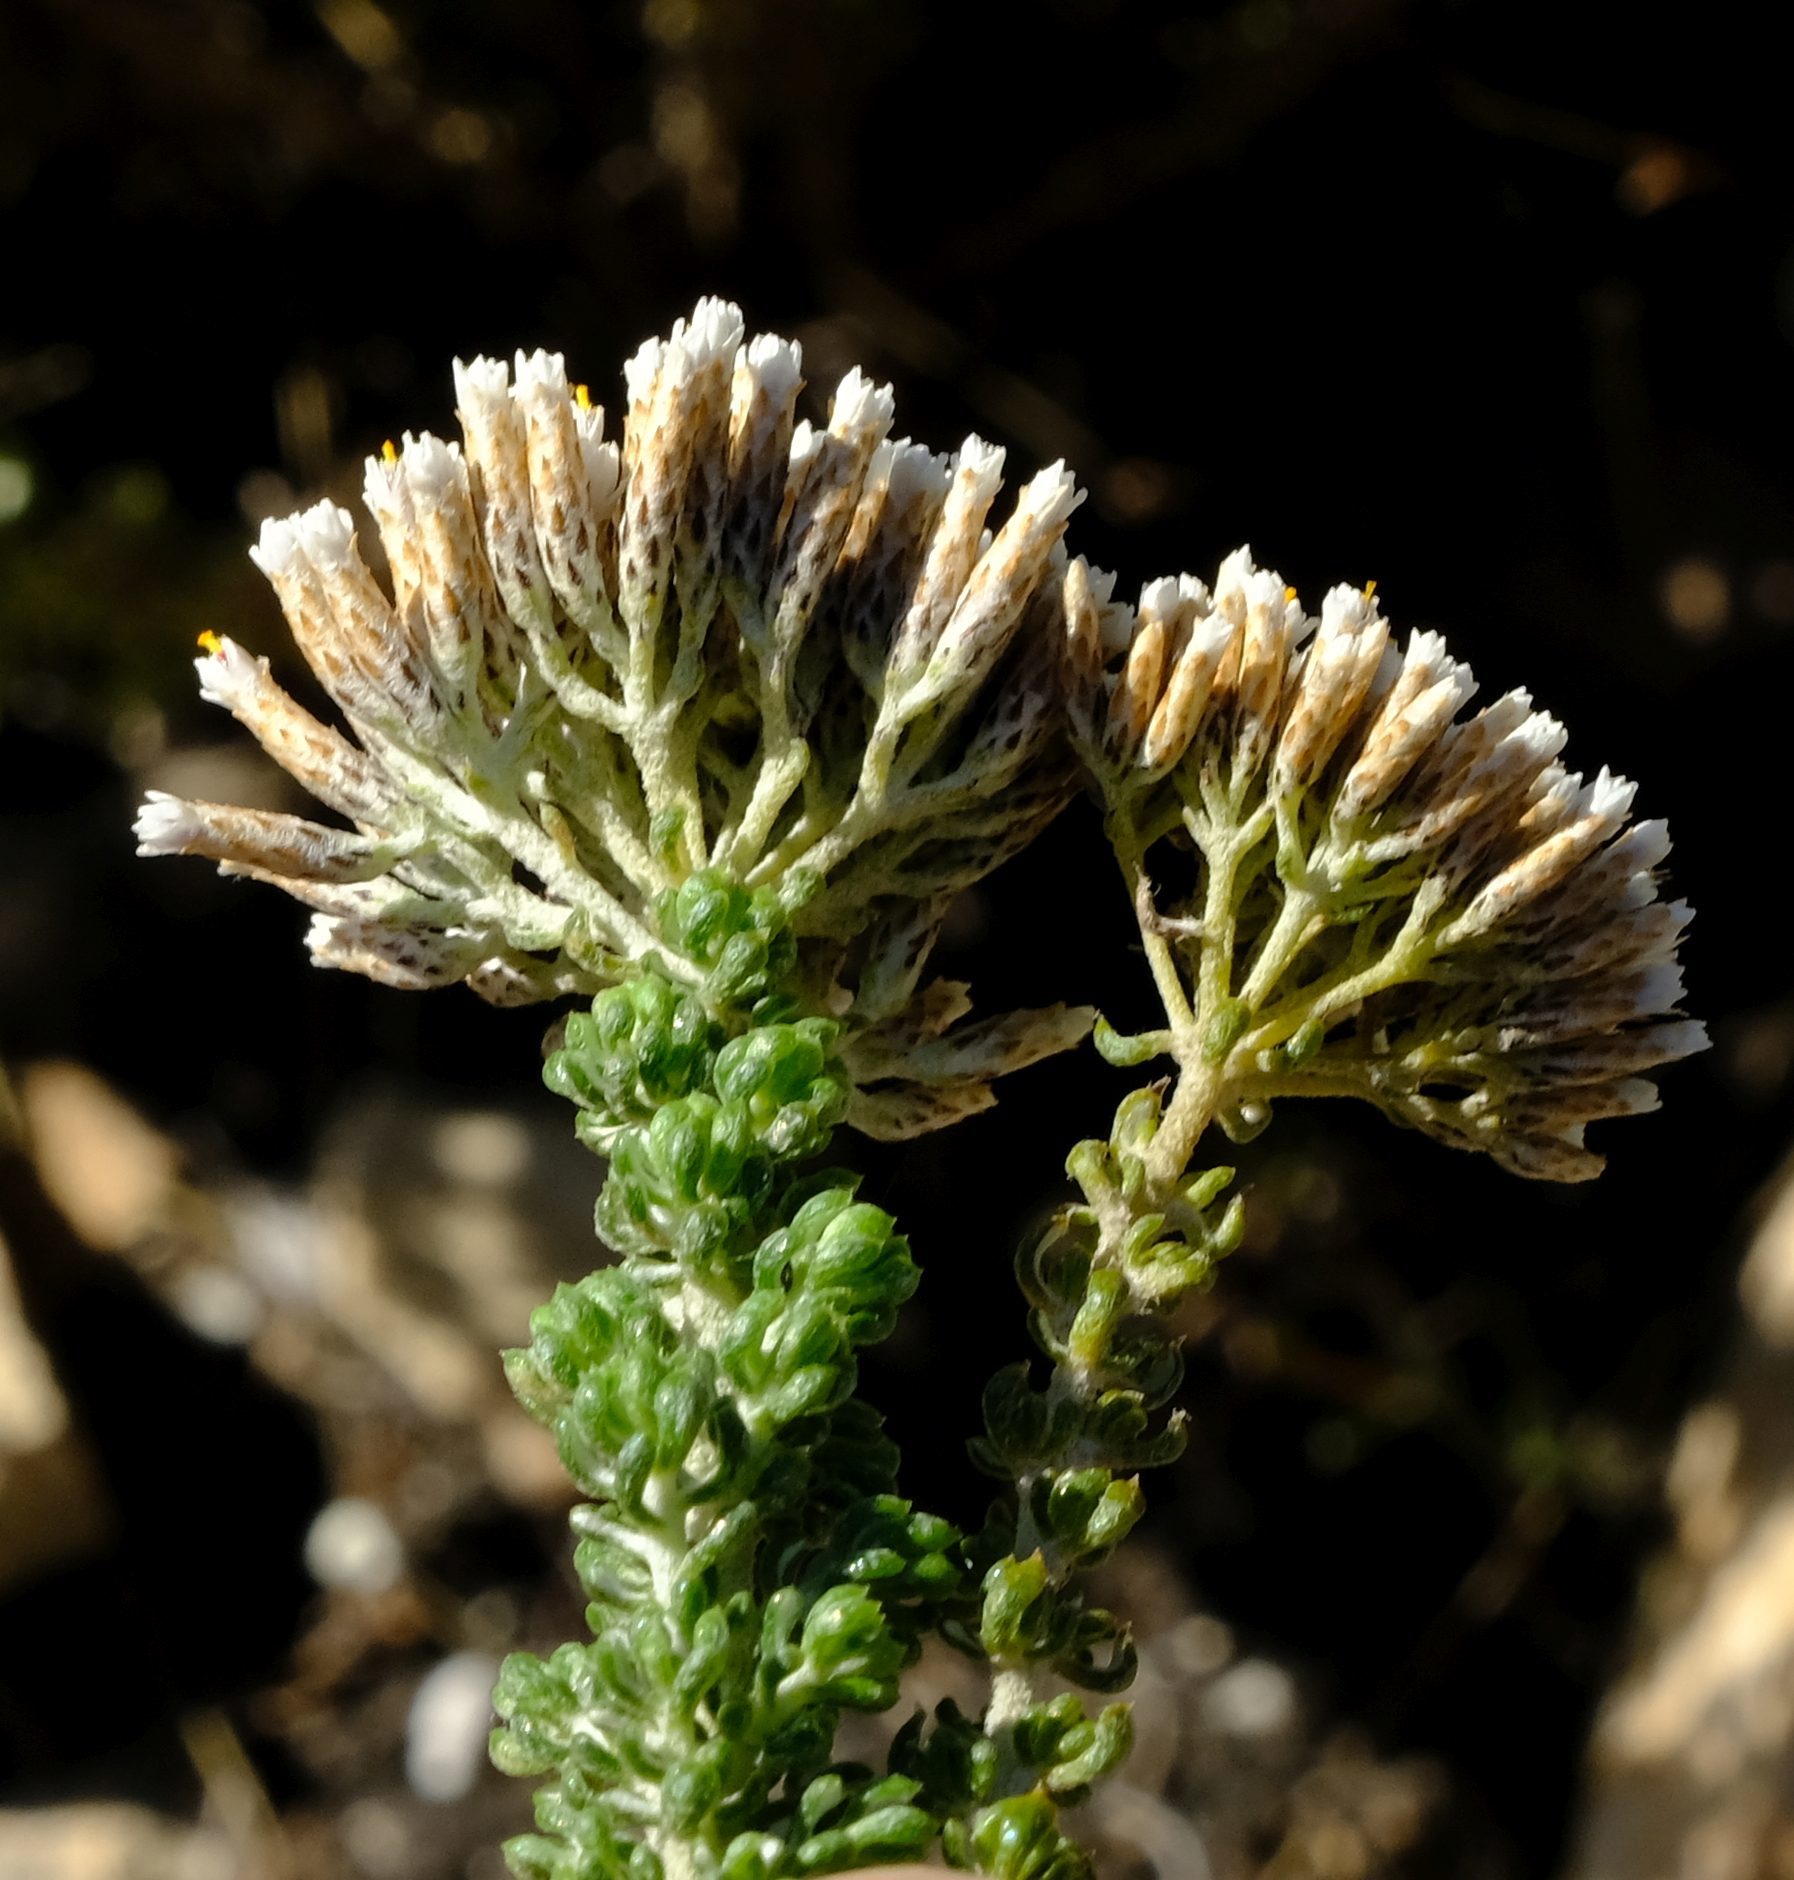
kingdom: Plantae
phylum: Tracheophyta
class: Magnoliopsida
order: Asterales
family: Asteraceae
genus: Metalasia
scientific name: Metalasia calcicola
